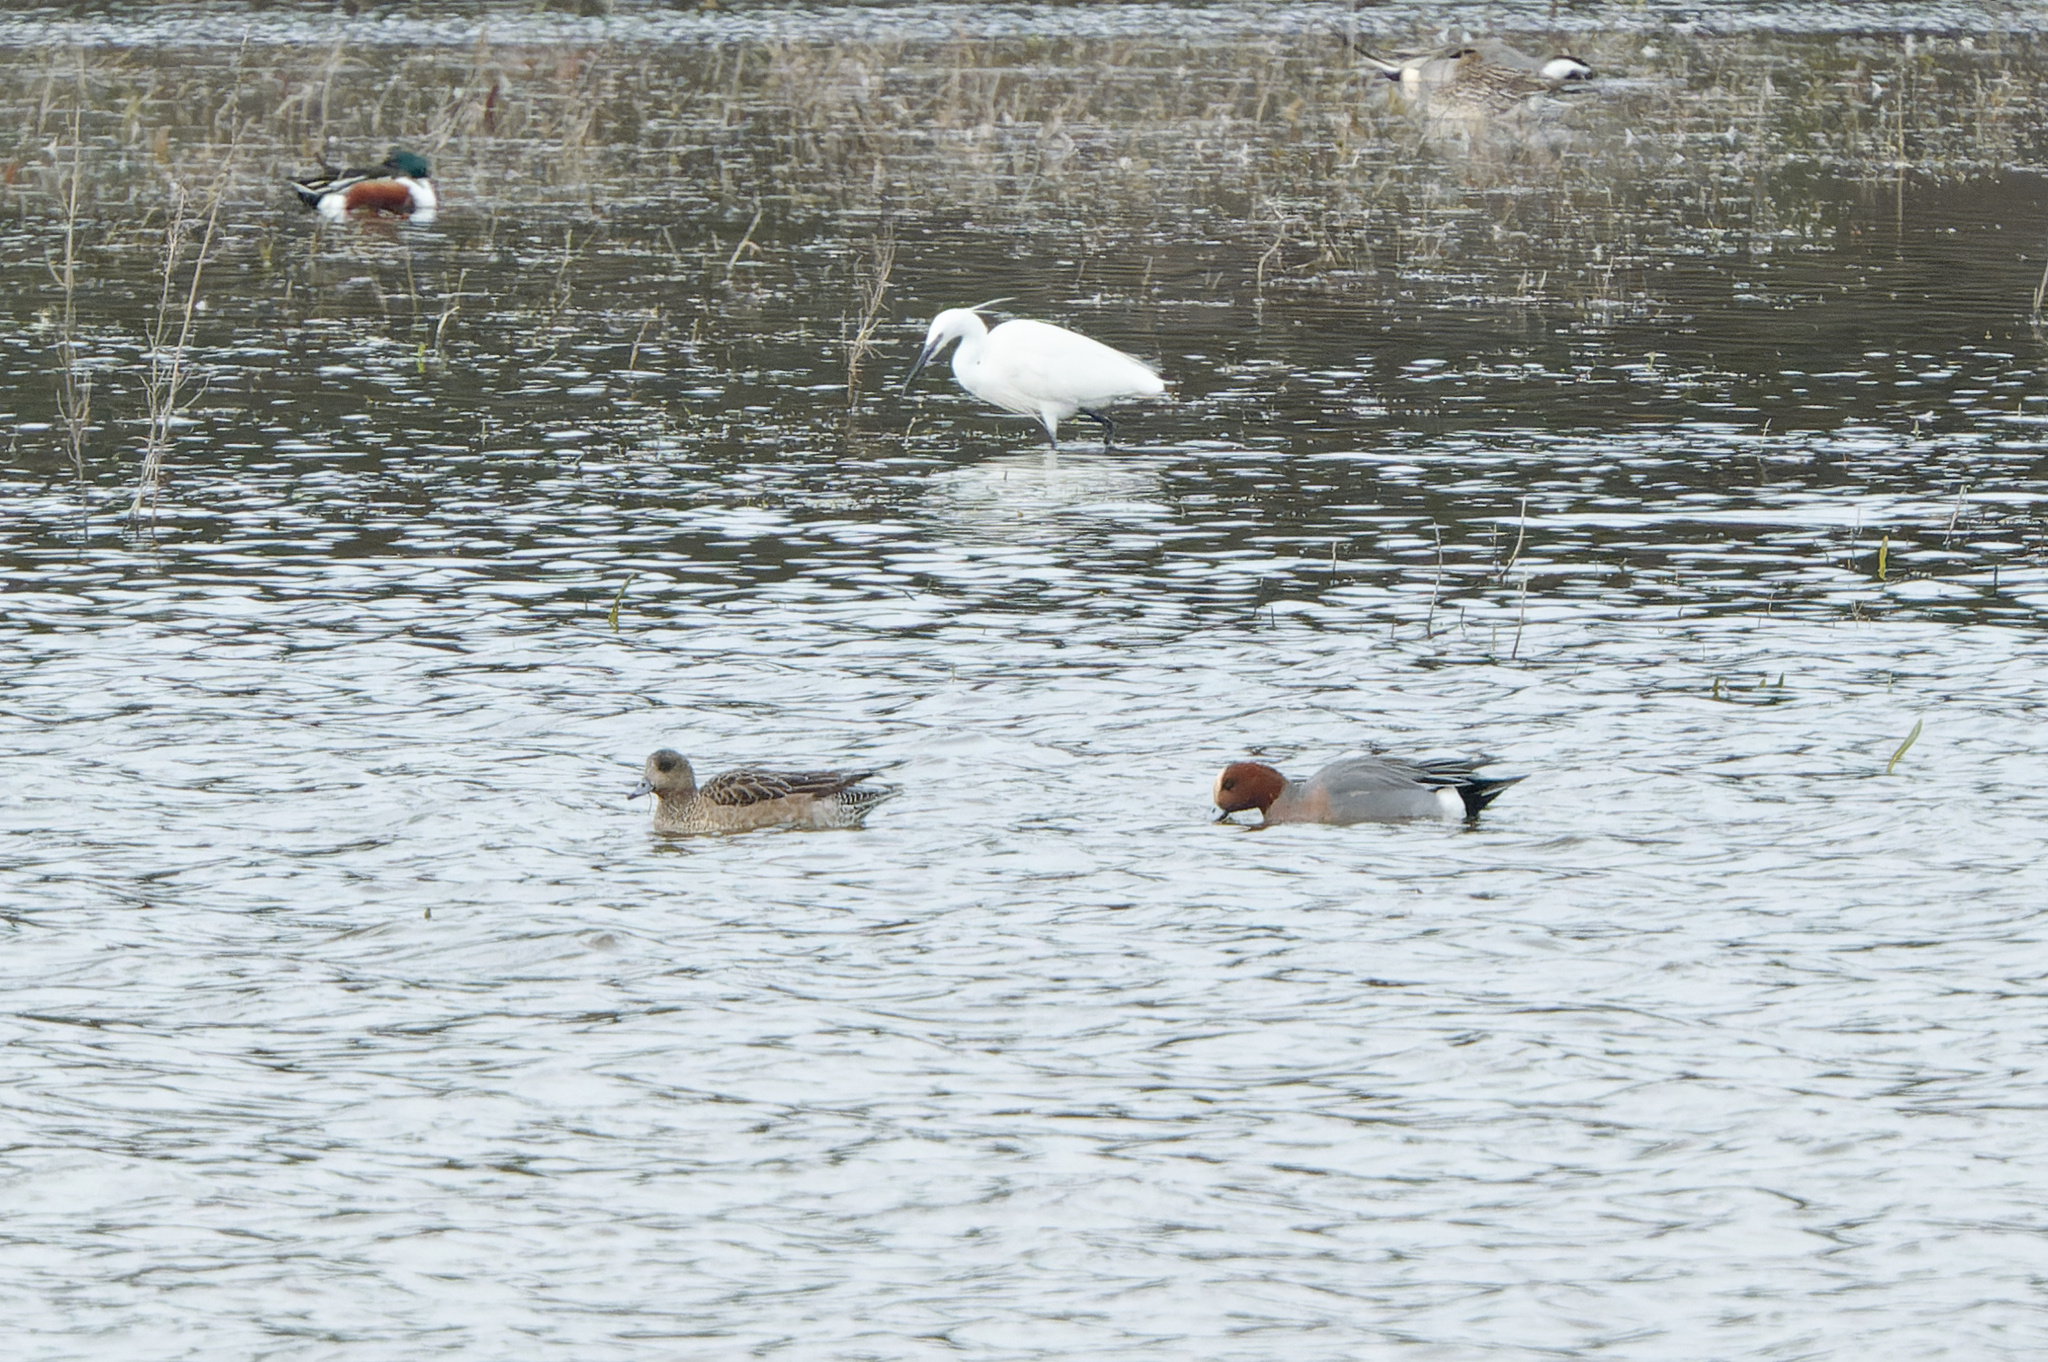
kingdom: Animalia
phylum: Chordata
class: Aves
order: Anseriformes
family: Anatidae
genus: Mareca
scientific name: Mareca penelope
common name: Eurasian wigeon
